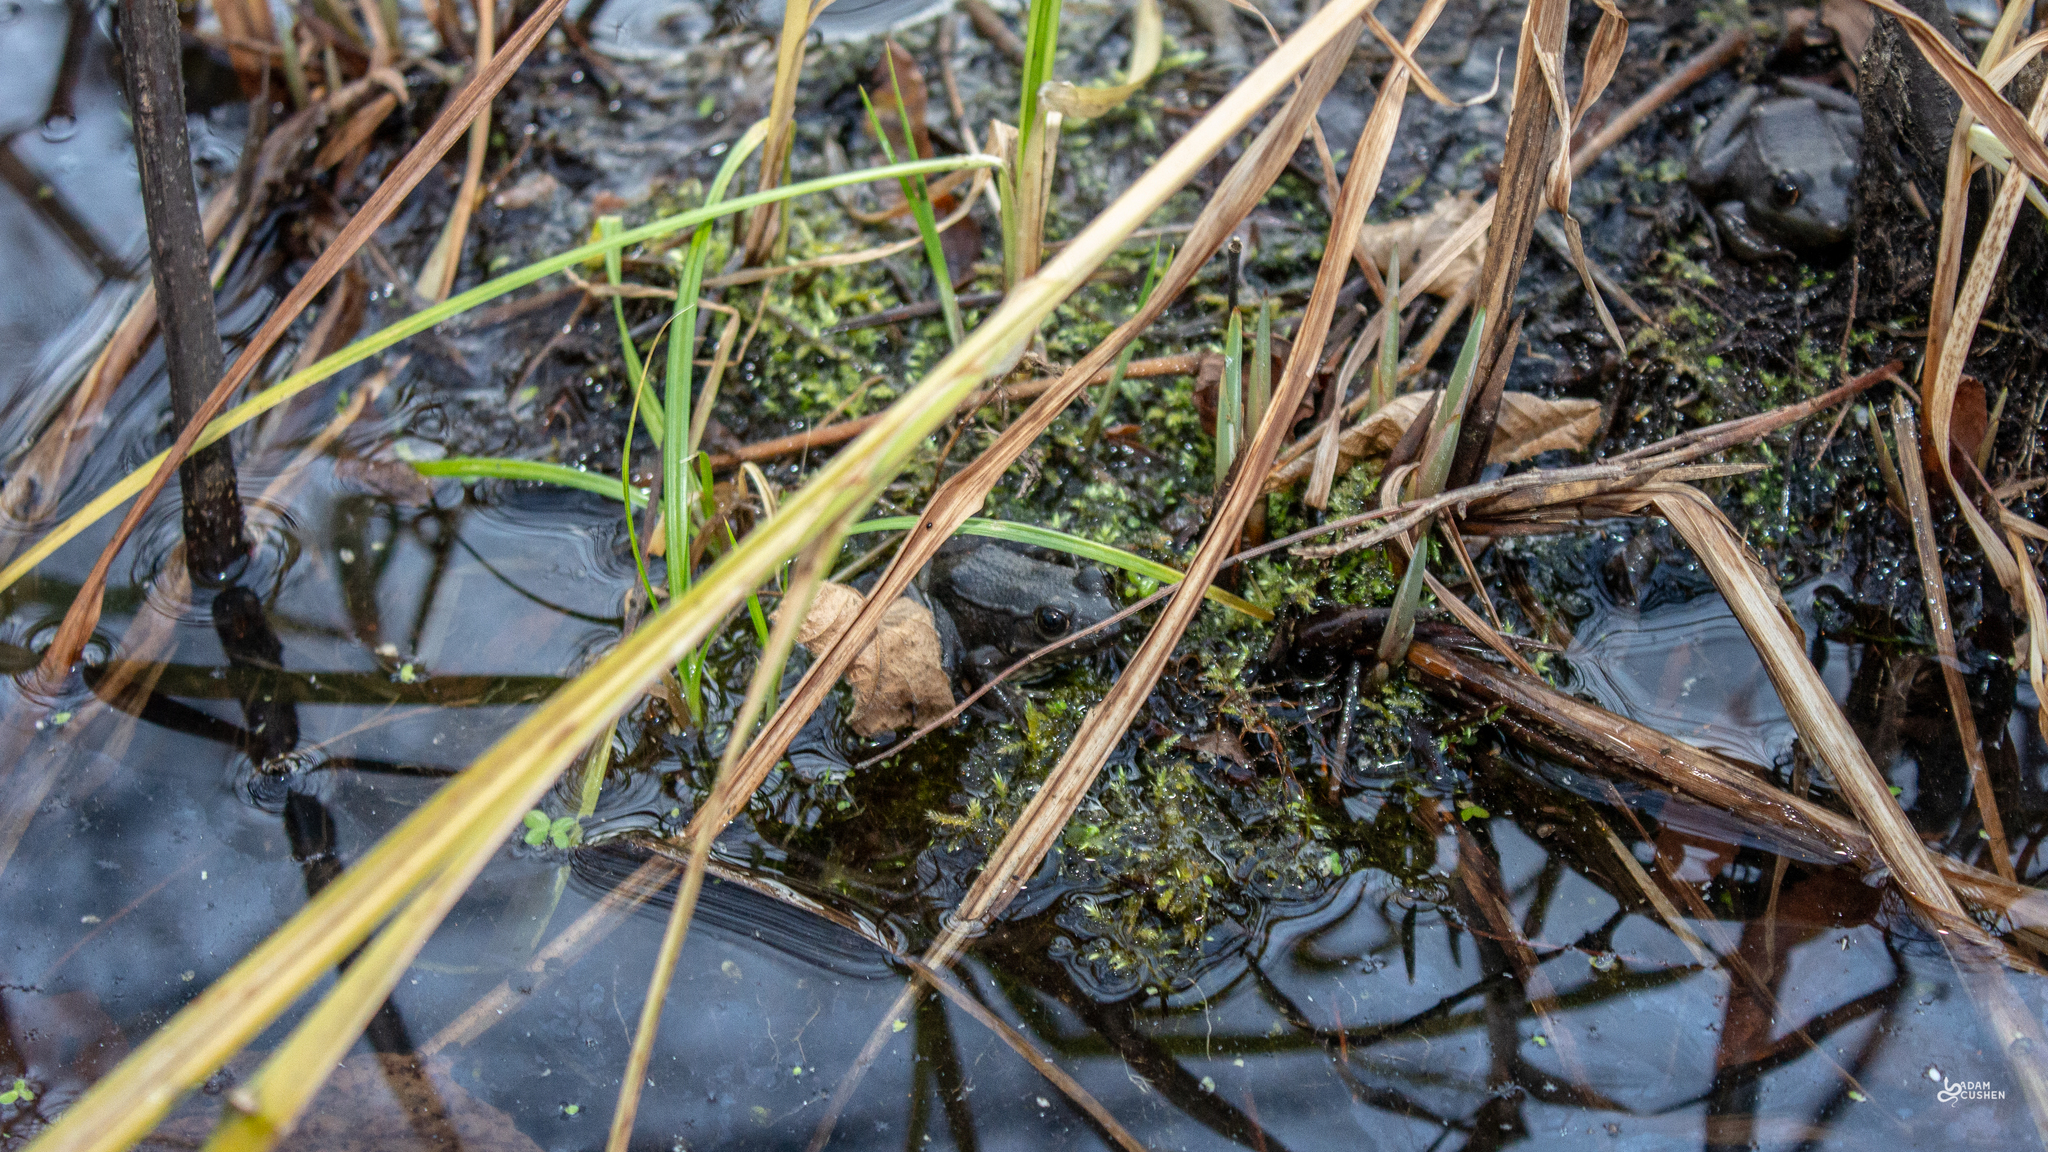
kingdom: Animalia
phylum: Chordata
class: Amphibia
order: Anura
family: Ranidae
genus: Lithobates
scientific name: Lithobates clamitans
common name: Green frog
